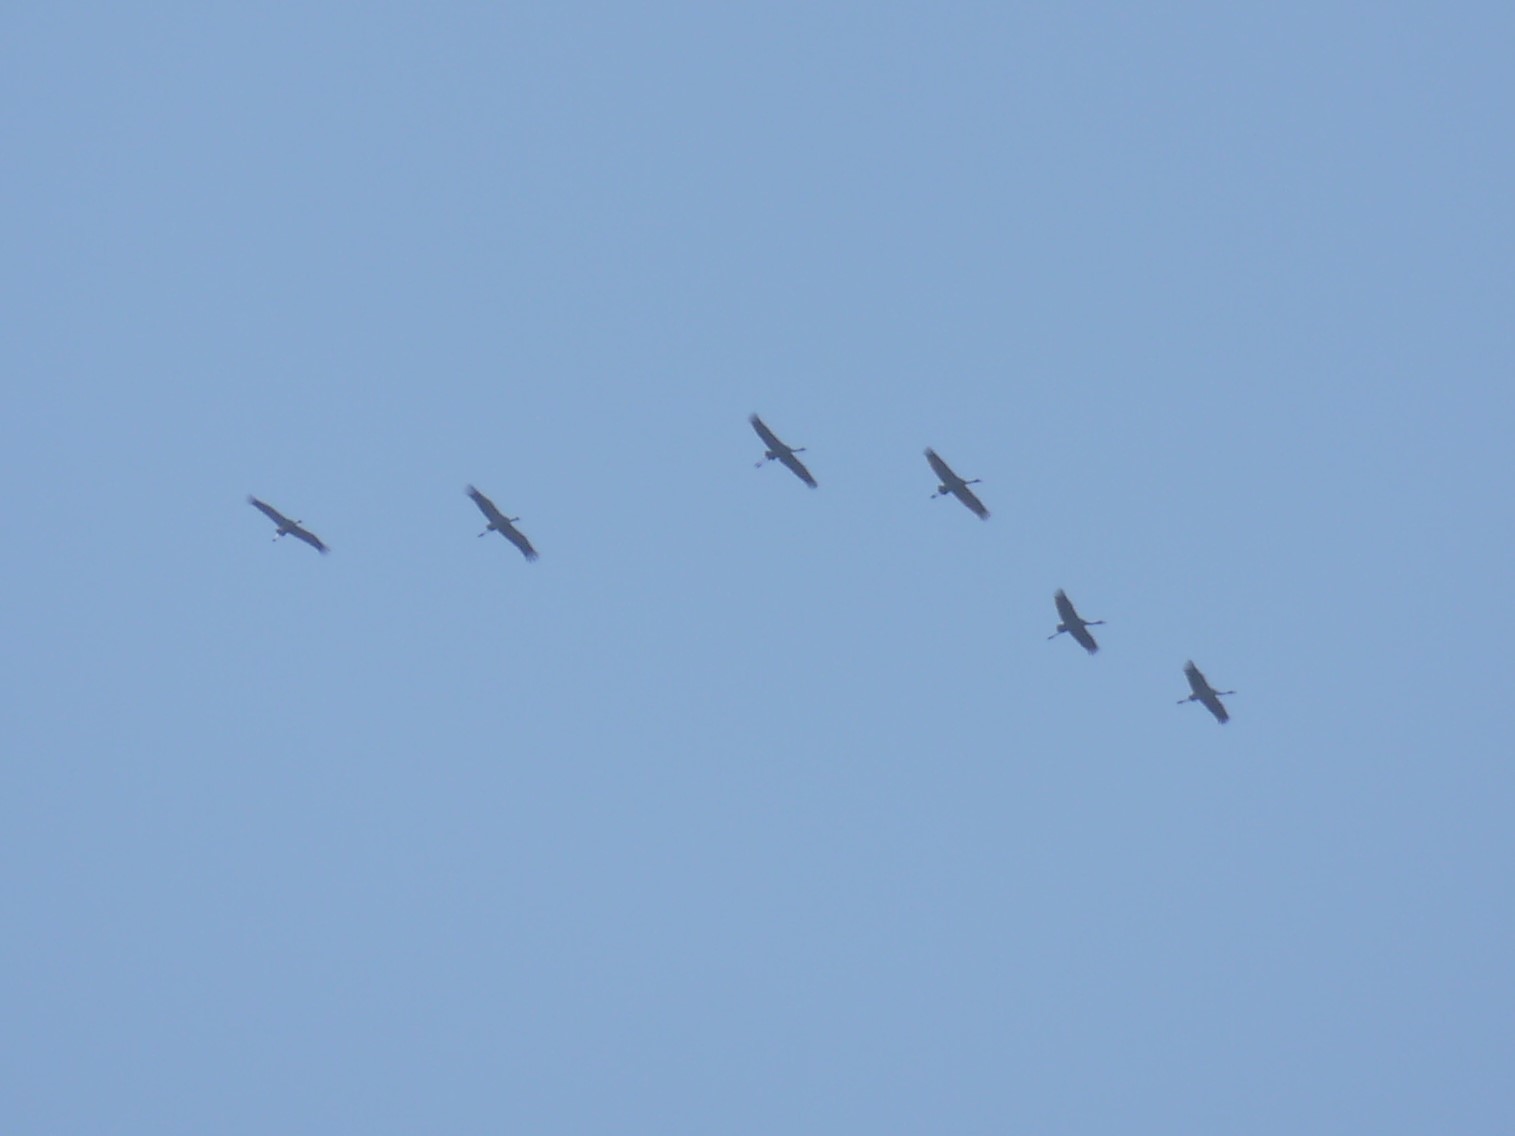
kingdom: Animalia
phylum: Chordata
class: Aves
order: Gruiformes
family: Gruidae
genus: Grus
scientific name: Grus grus
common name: Common crane
